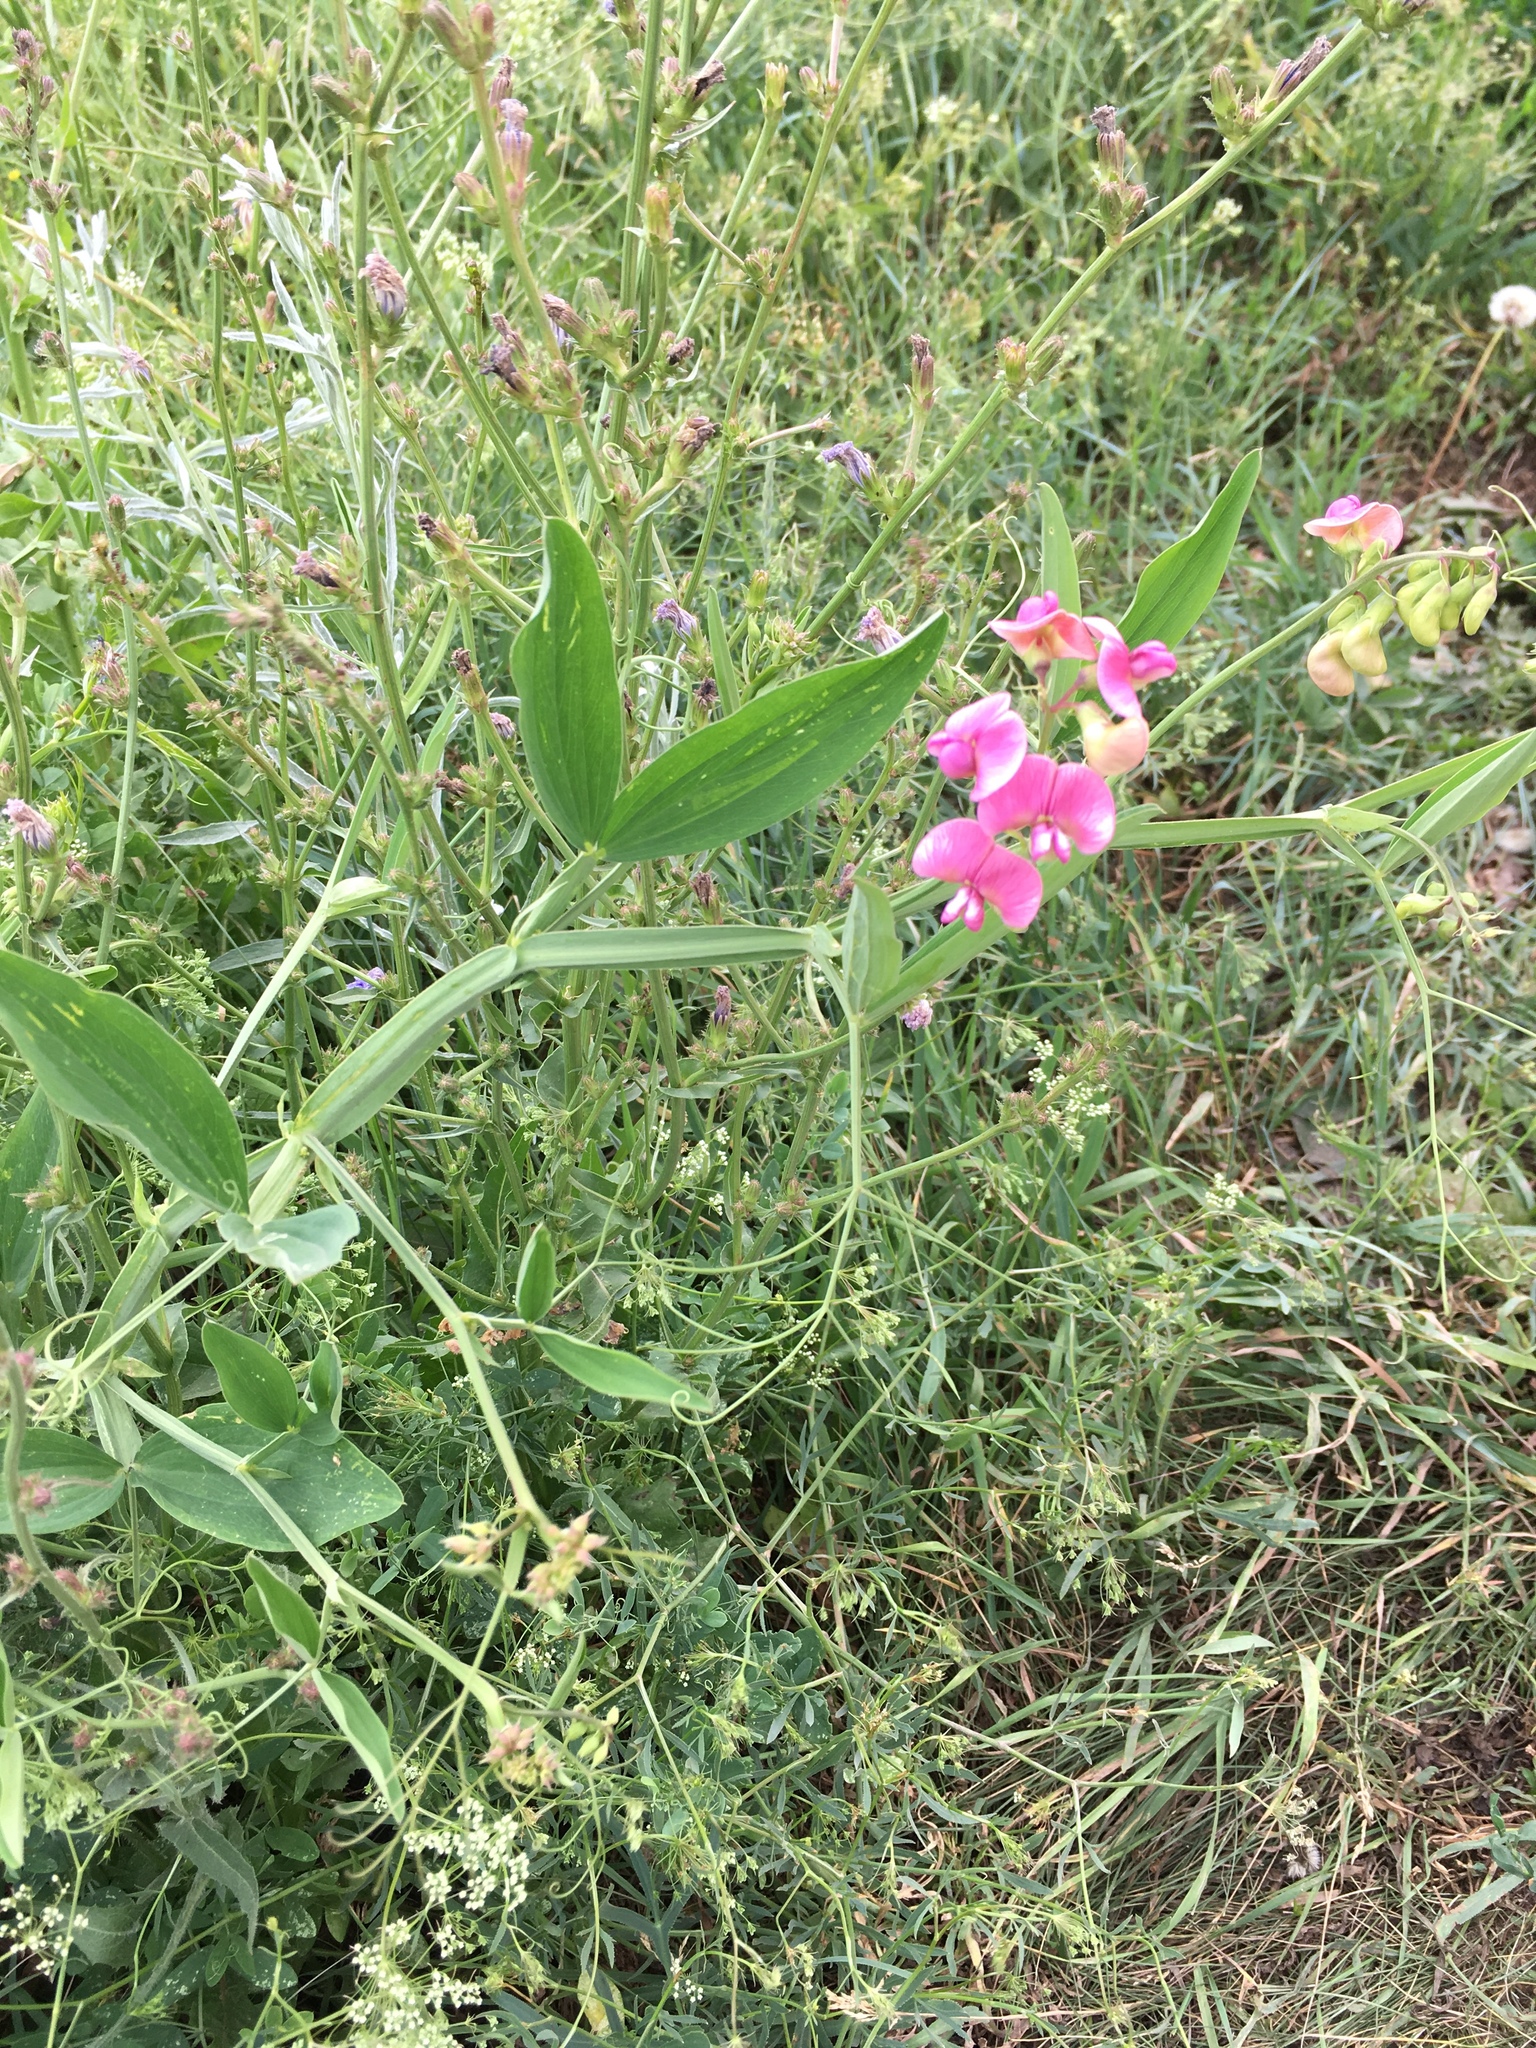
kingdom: Plantae
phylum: Tracheophyta
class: Magnoliopsida
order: Fabales
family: Fabaceae
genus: Lathyrus
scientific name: Lathyrus sylvestris
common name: Flat pea
